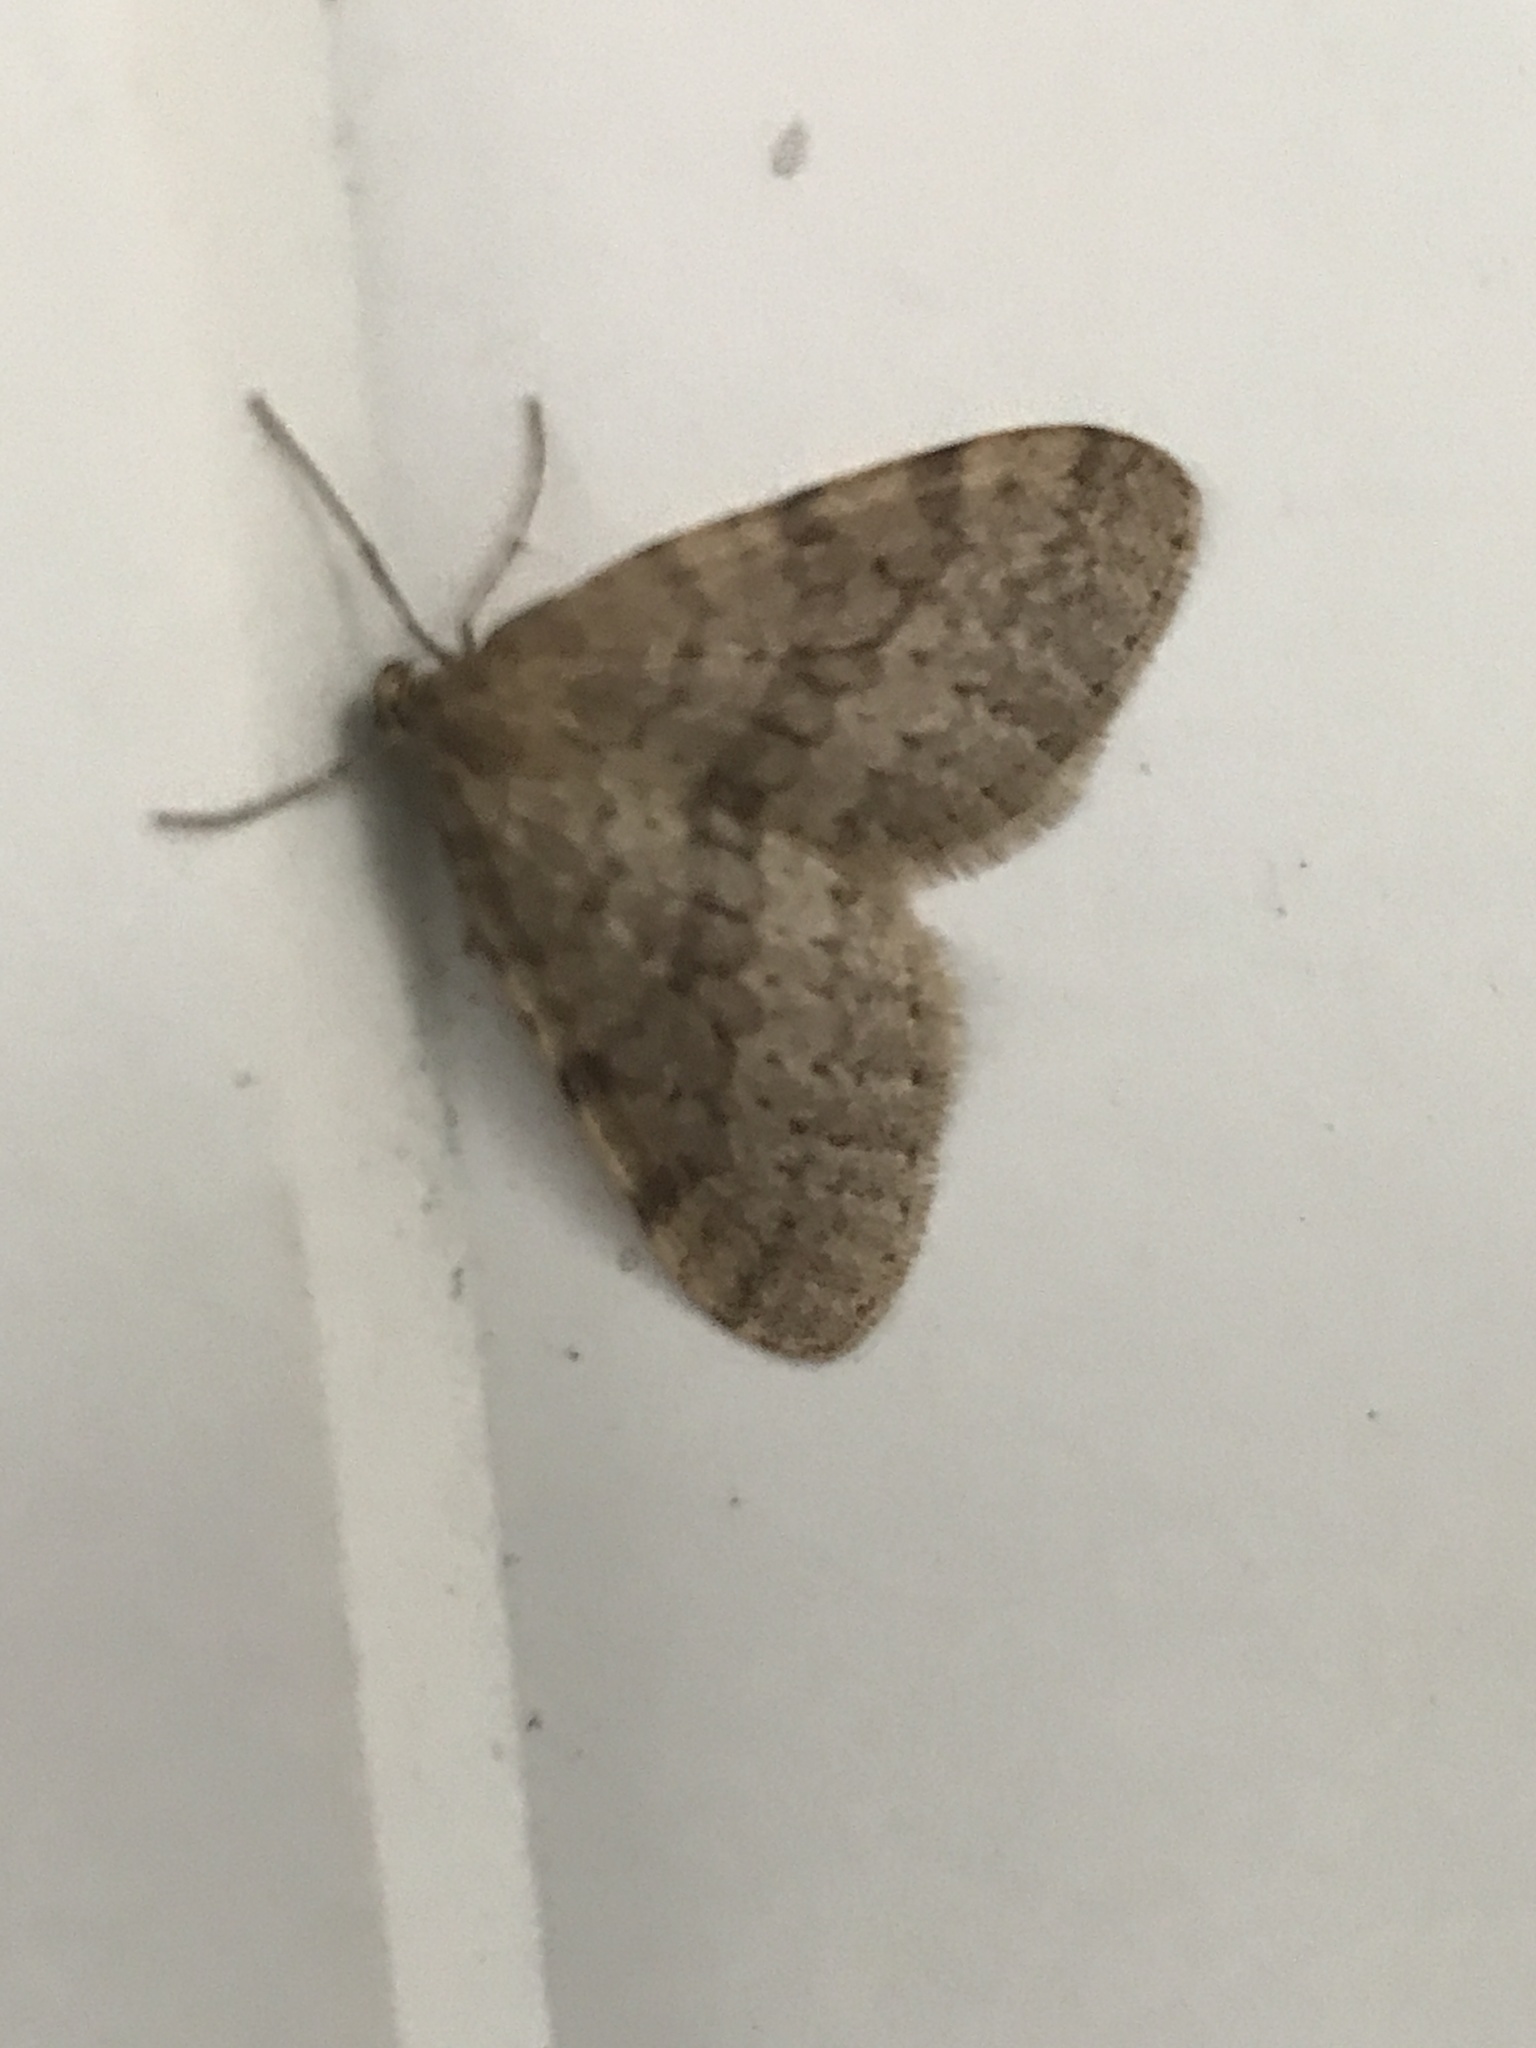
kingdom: Animalia
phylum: Arthropoda
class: Insecta
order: Lepidoptera
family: Geometridae
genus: Operophtera
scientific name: Operophtera bruceata
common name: Bruce spanworm
